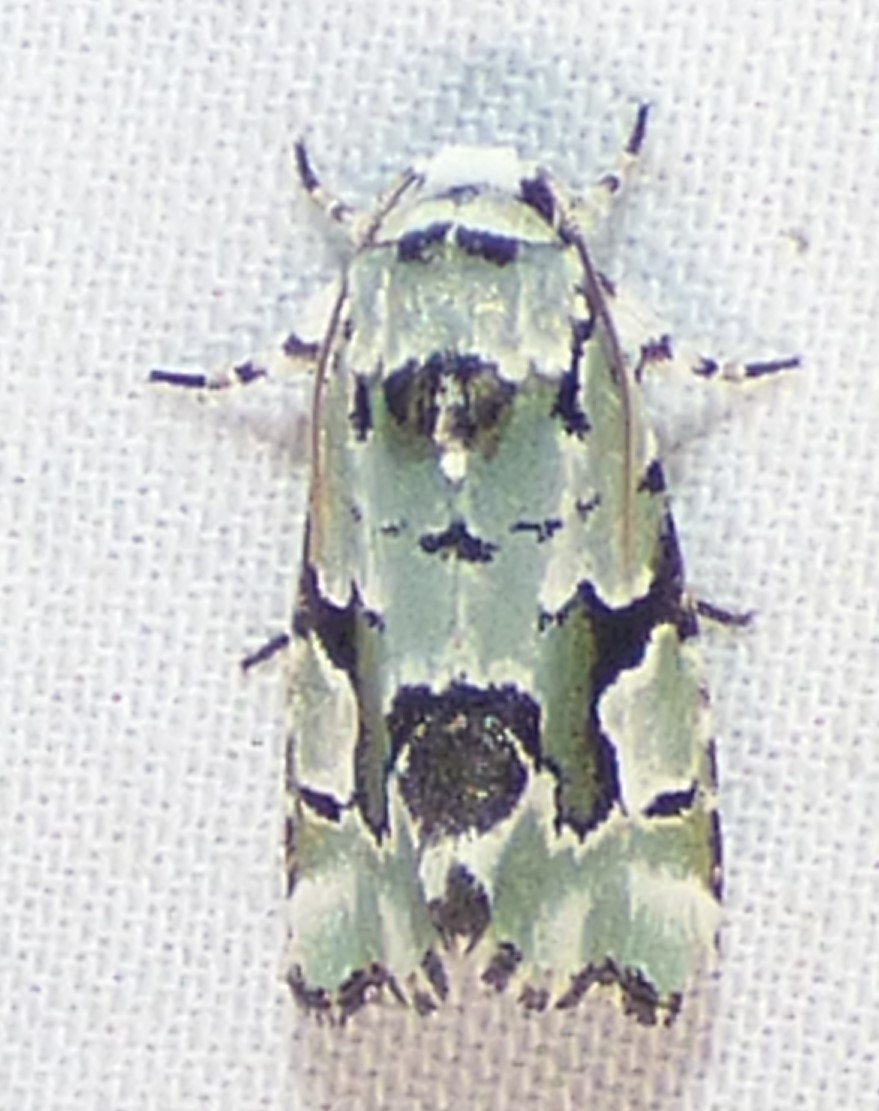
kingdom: Animalia
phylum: Arthropoda
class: Insecta
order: Lepidoptera
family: Noctuidae
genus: Emarginea
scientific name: Emarginea percara
